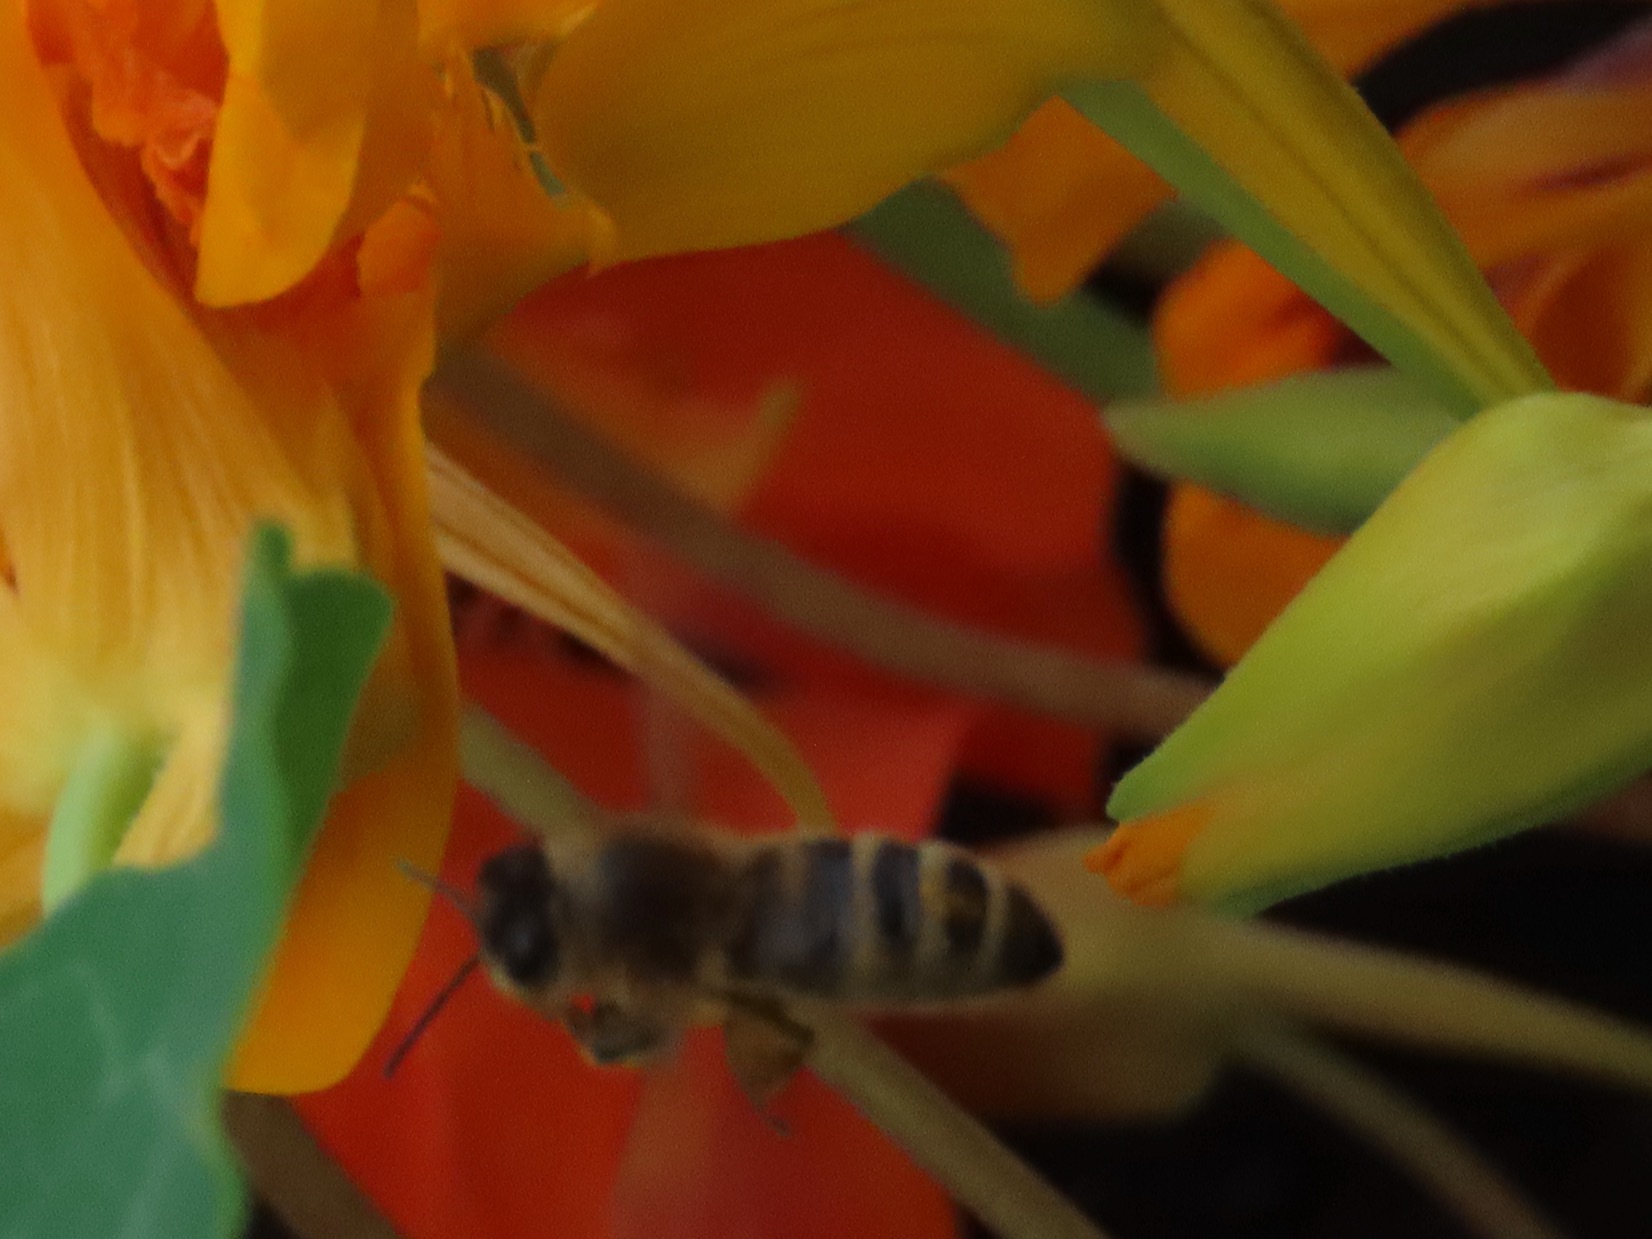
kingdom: Animalia
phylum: Arthropoda
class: Insecta
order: Hymenoptera
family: Apidae
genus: Apis
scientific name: Apis mellifera
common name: Honey bee
